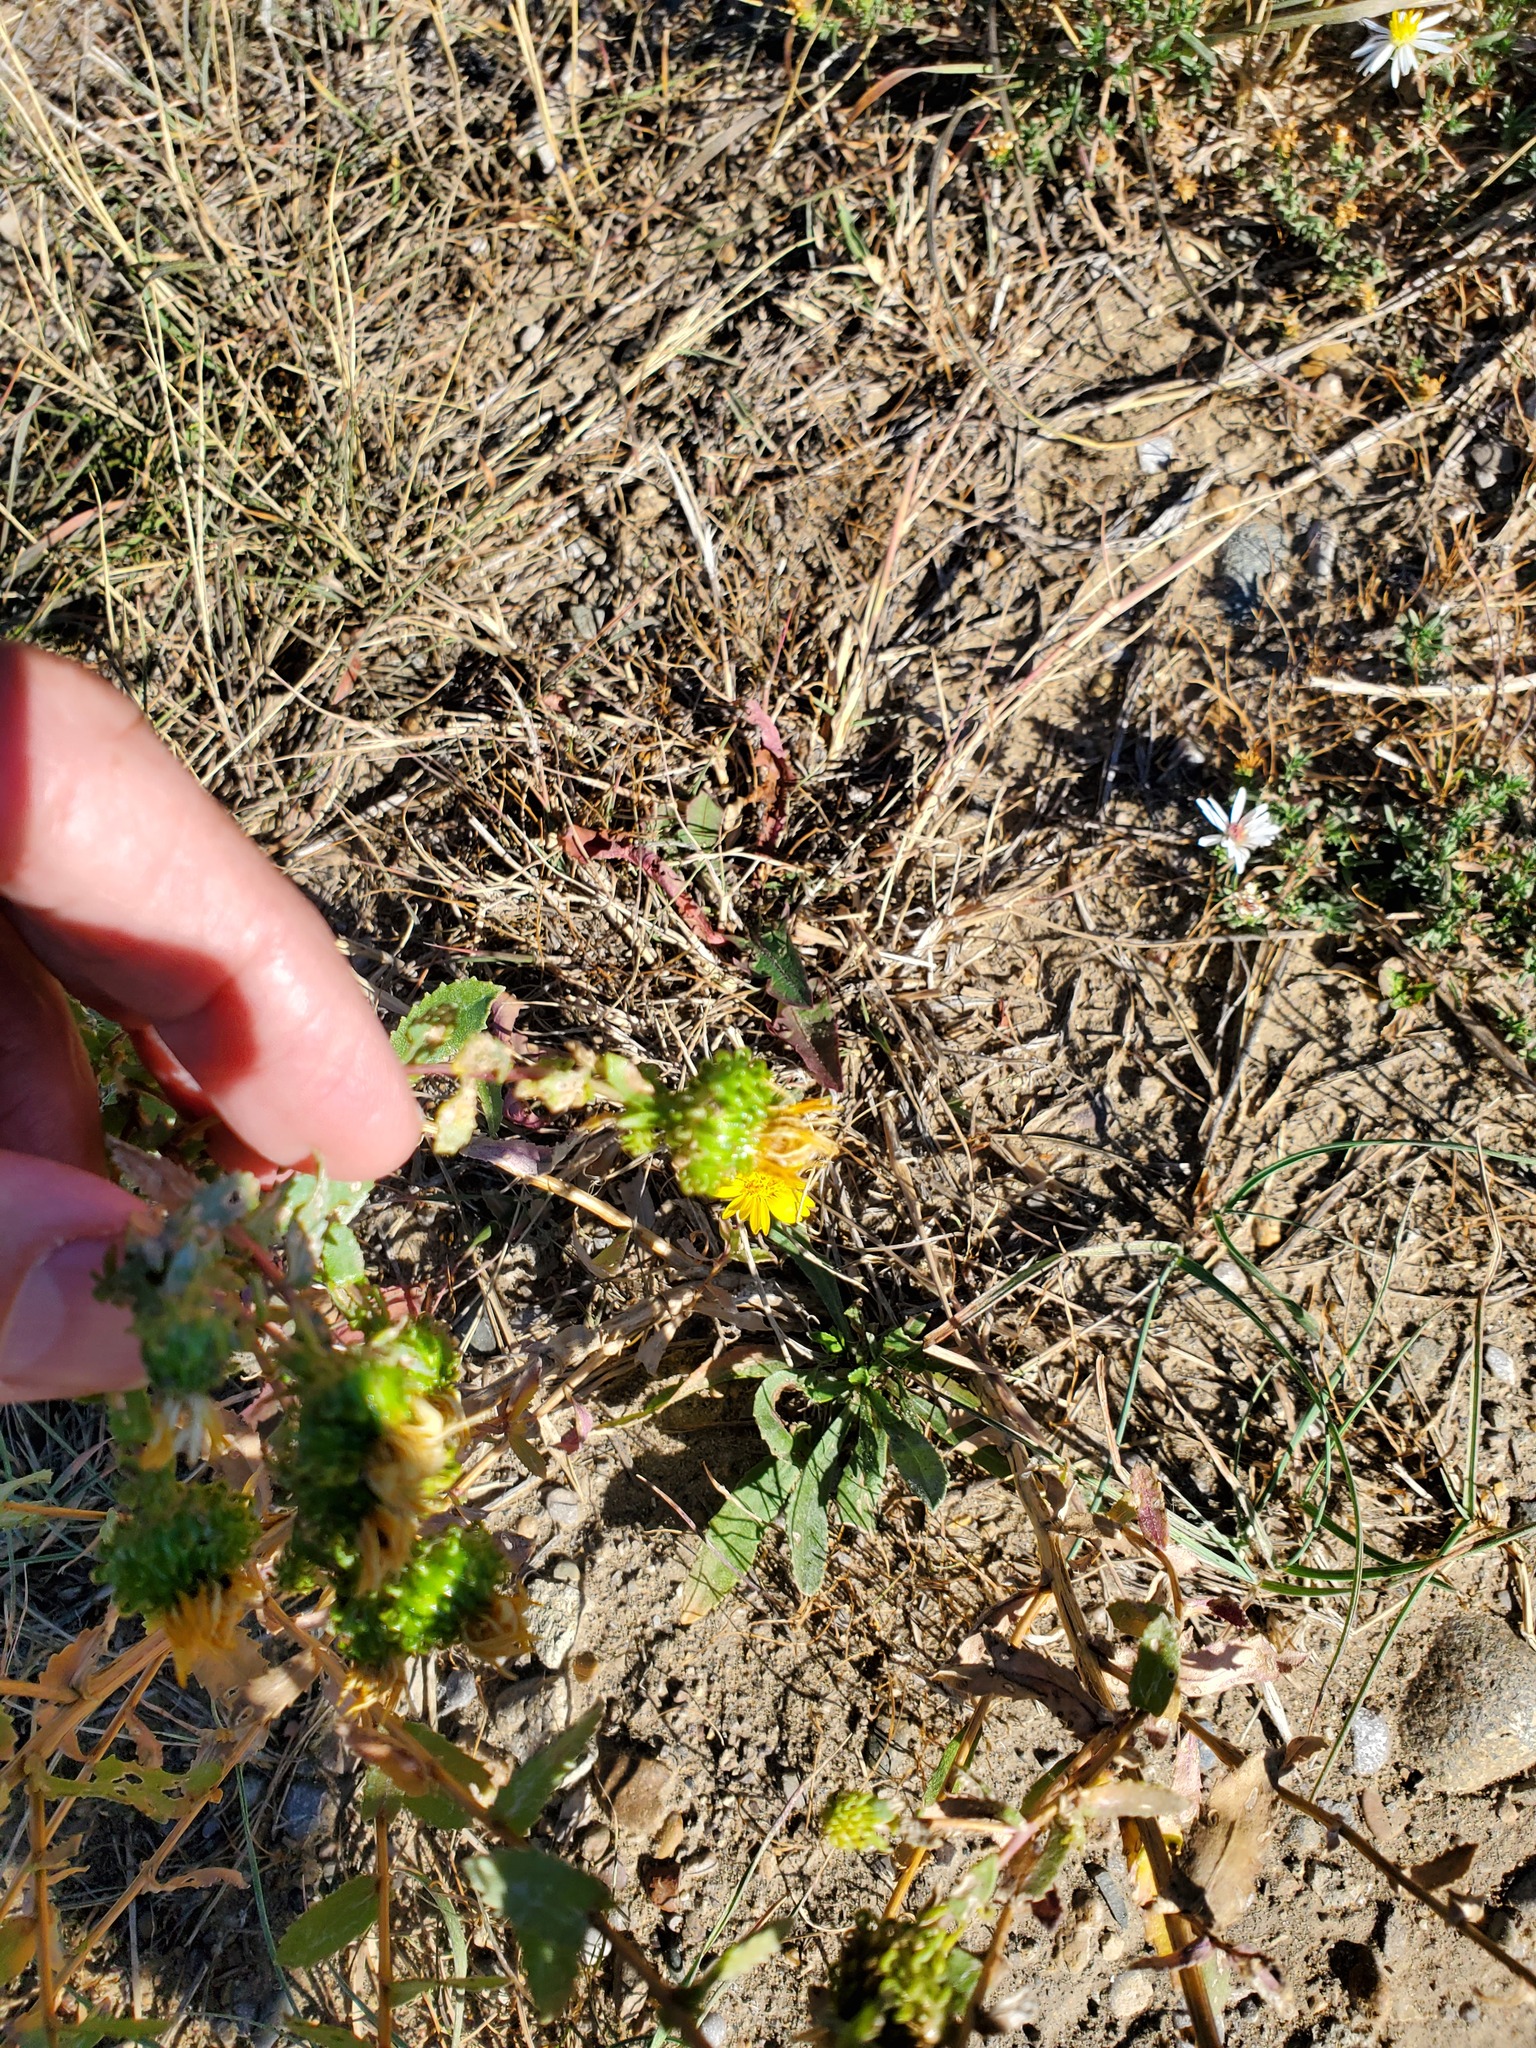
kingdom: Plantae
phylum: Tracheophyta
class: Magnoliopsida
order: Asterales
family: Asteraceae
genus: Grindelia
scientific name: Grindelia squarrosa
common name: Curly-cup gumweed
